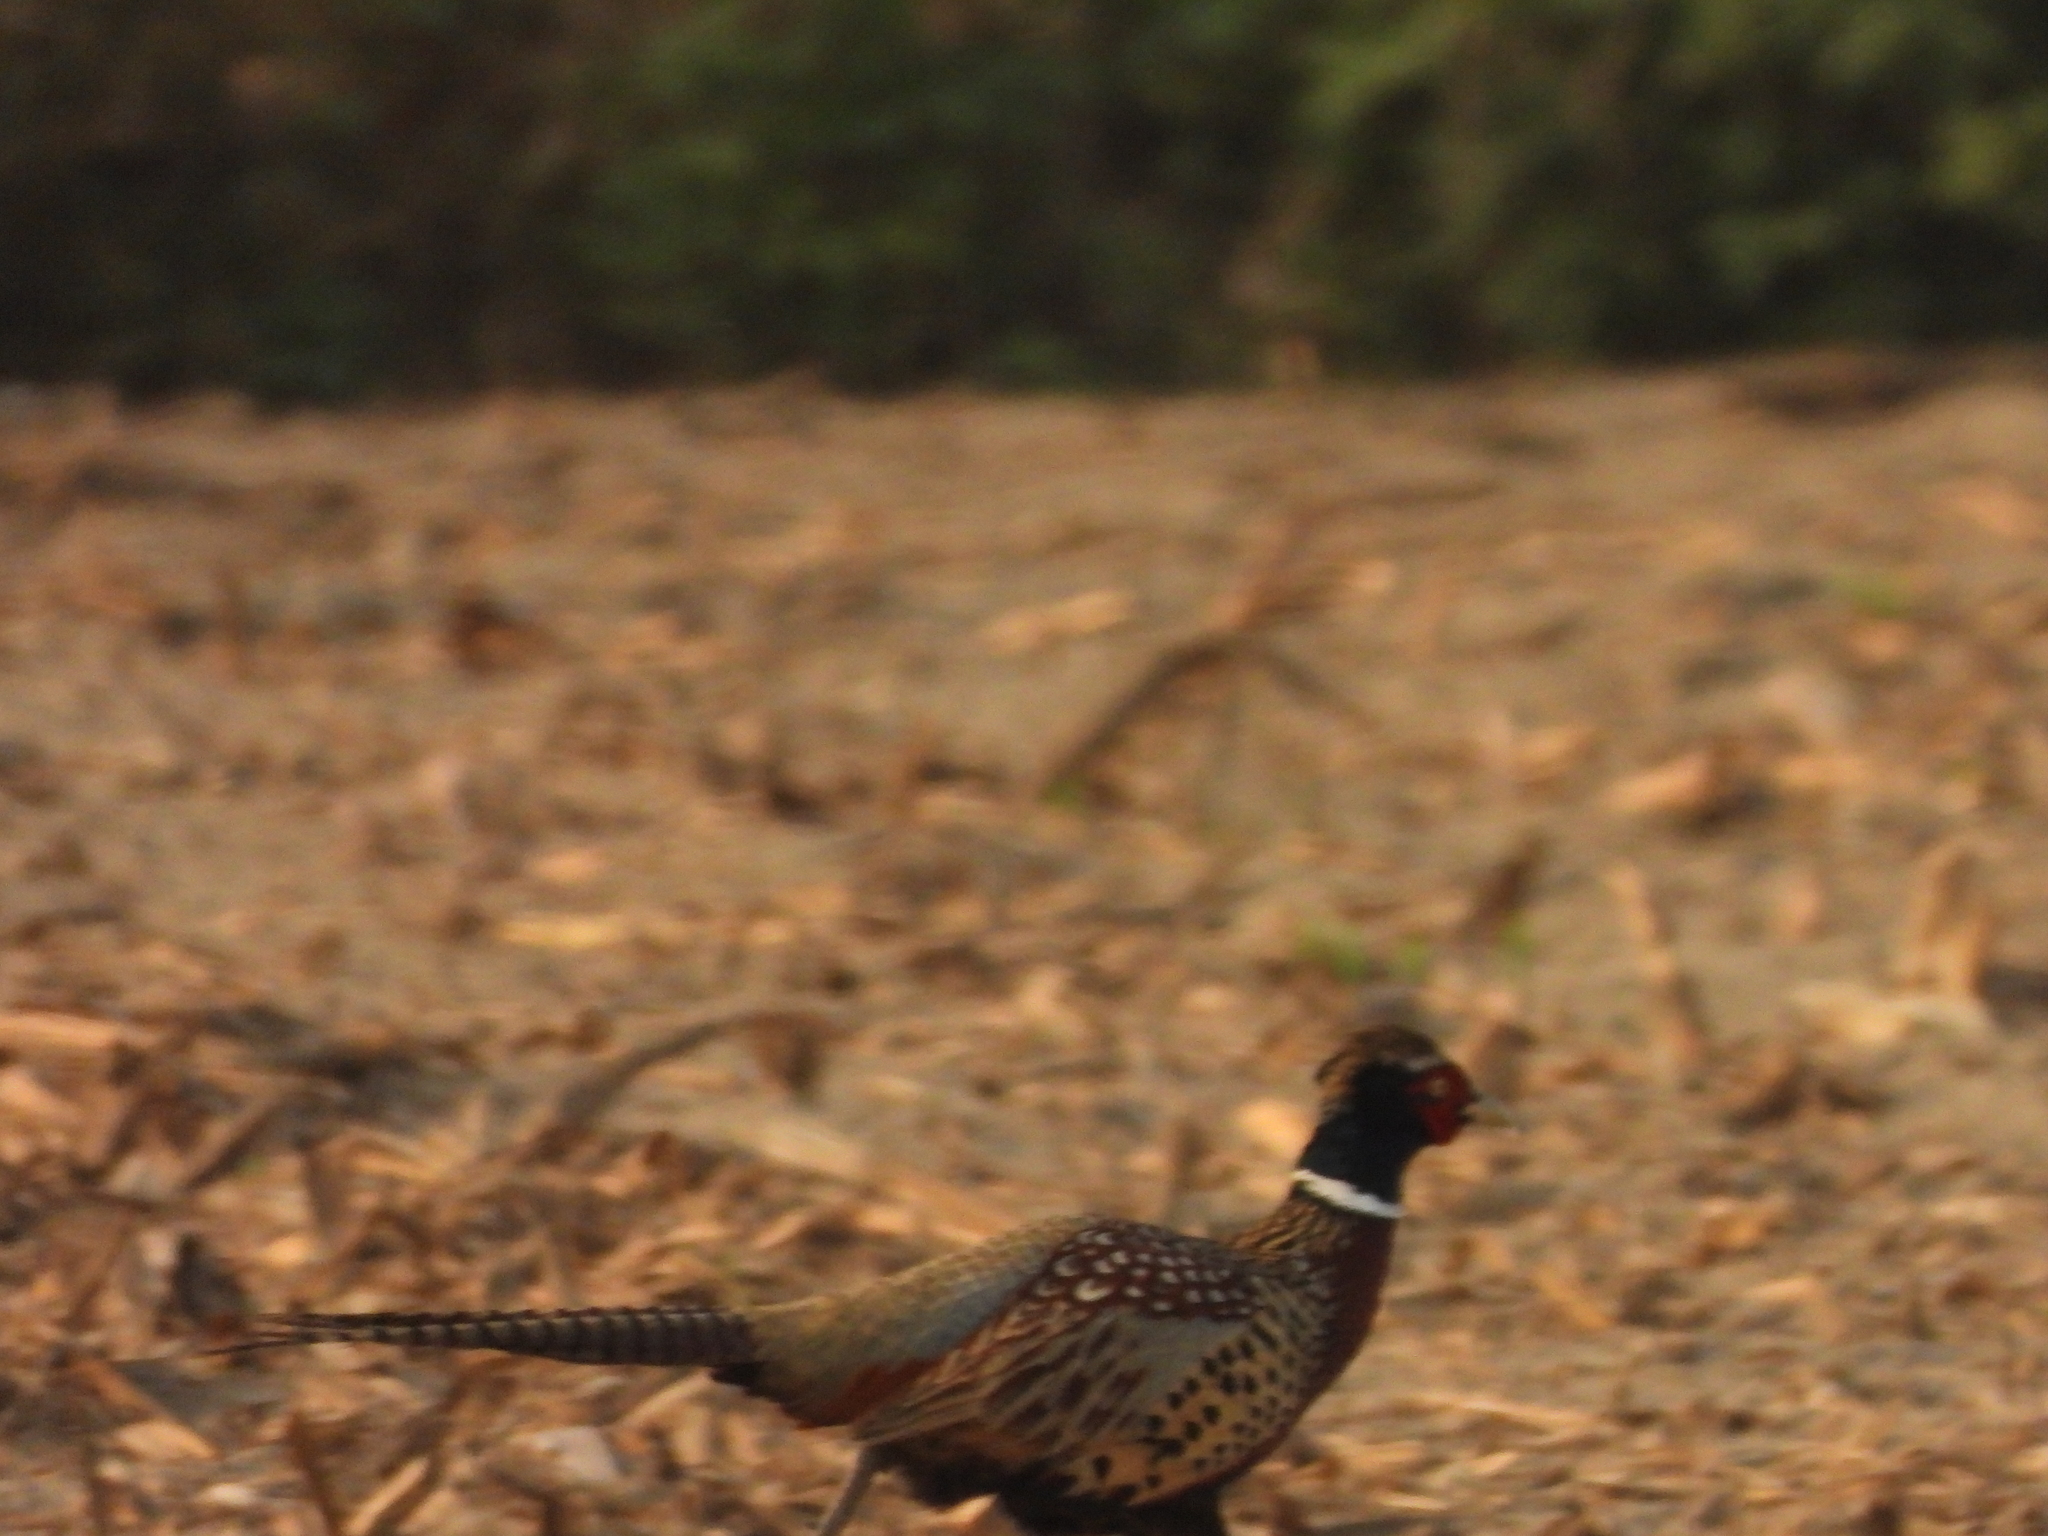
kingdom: Animalia
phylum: Chordata
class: Aves
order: Galliformes
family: Phasianidae
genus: Phasianus
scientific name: Phasianus colchicus
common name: Common pheasant
